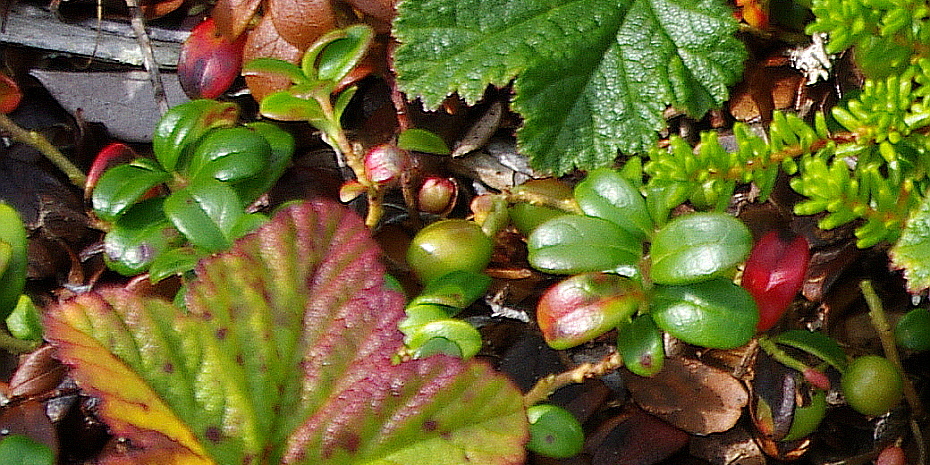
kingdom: Plantae
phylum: Tracheophyta
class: Magnoliopsida
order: Ericales
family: Ericaceae
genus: Vaccinium
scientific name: Vaccinium vitis-idaea
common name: Cowberry
